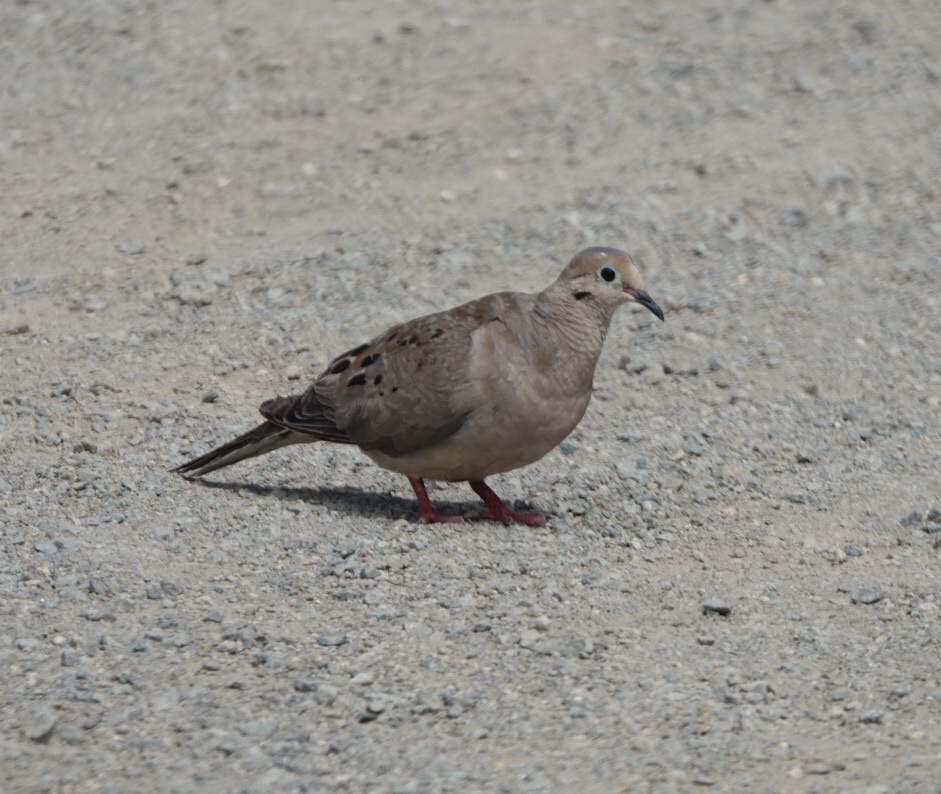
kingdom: Animalia
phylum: Chordata
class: Aves
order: Columbiformes
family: Columbidae
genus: Zenaida
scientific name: Zenaida macroura
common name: Mourning dove
